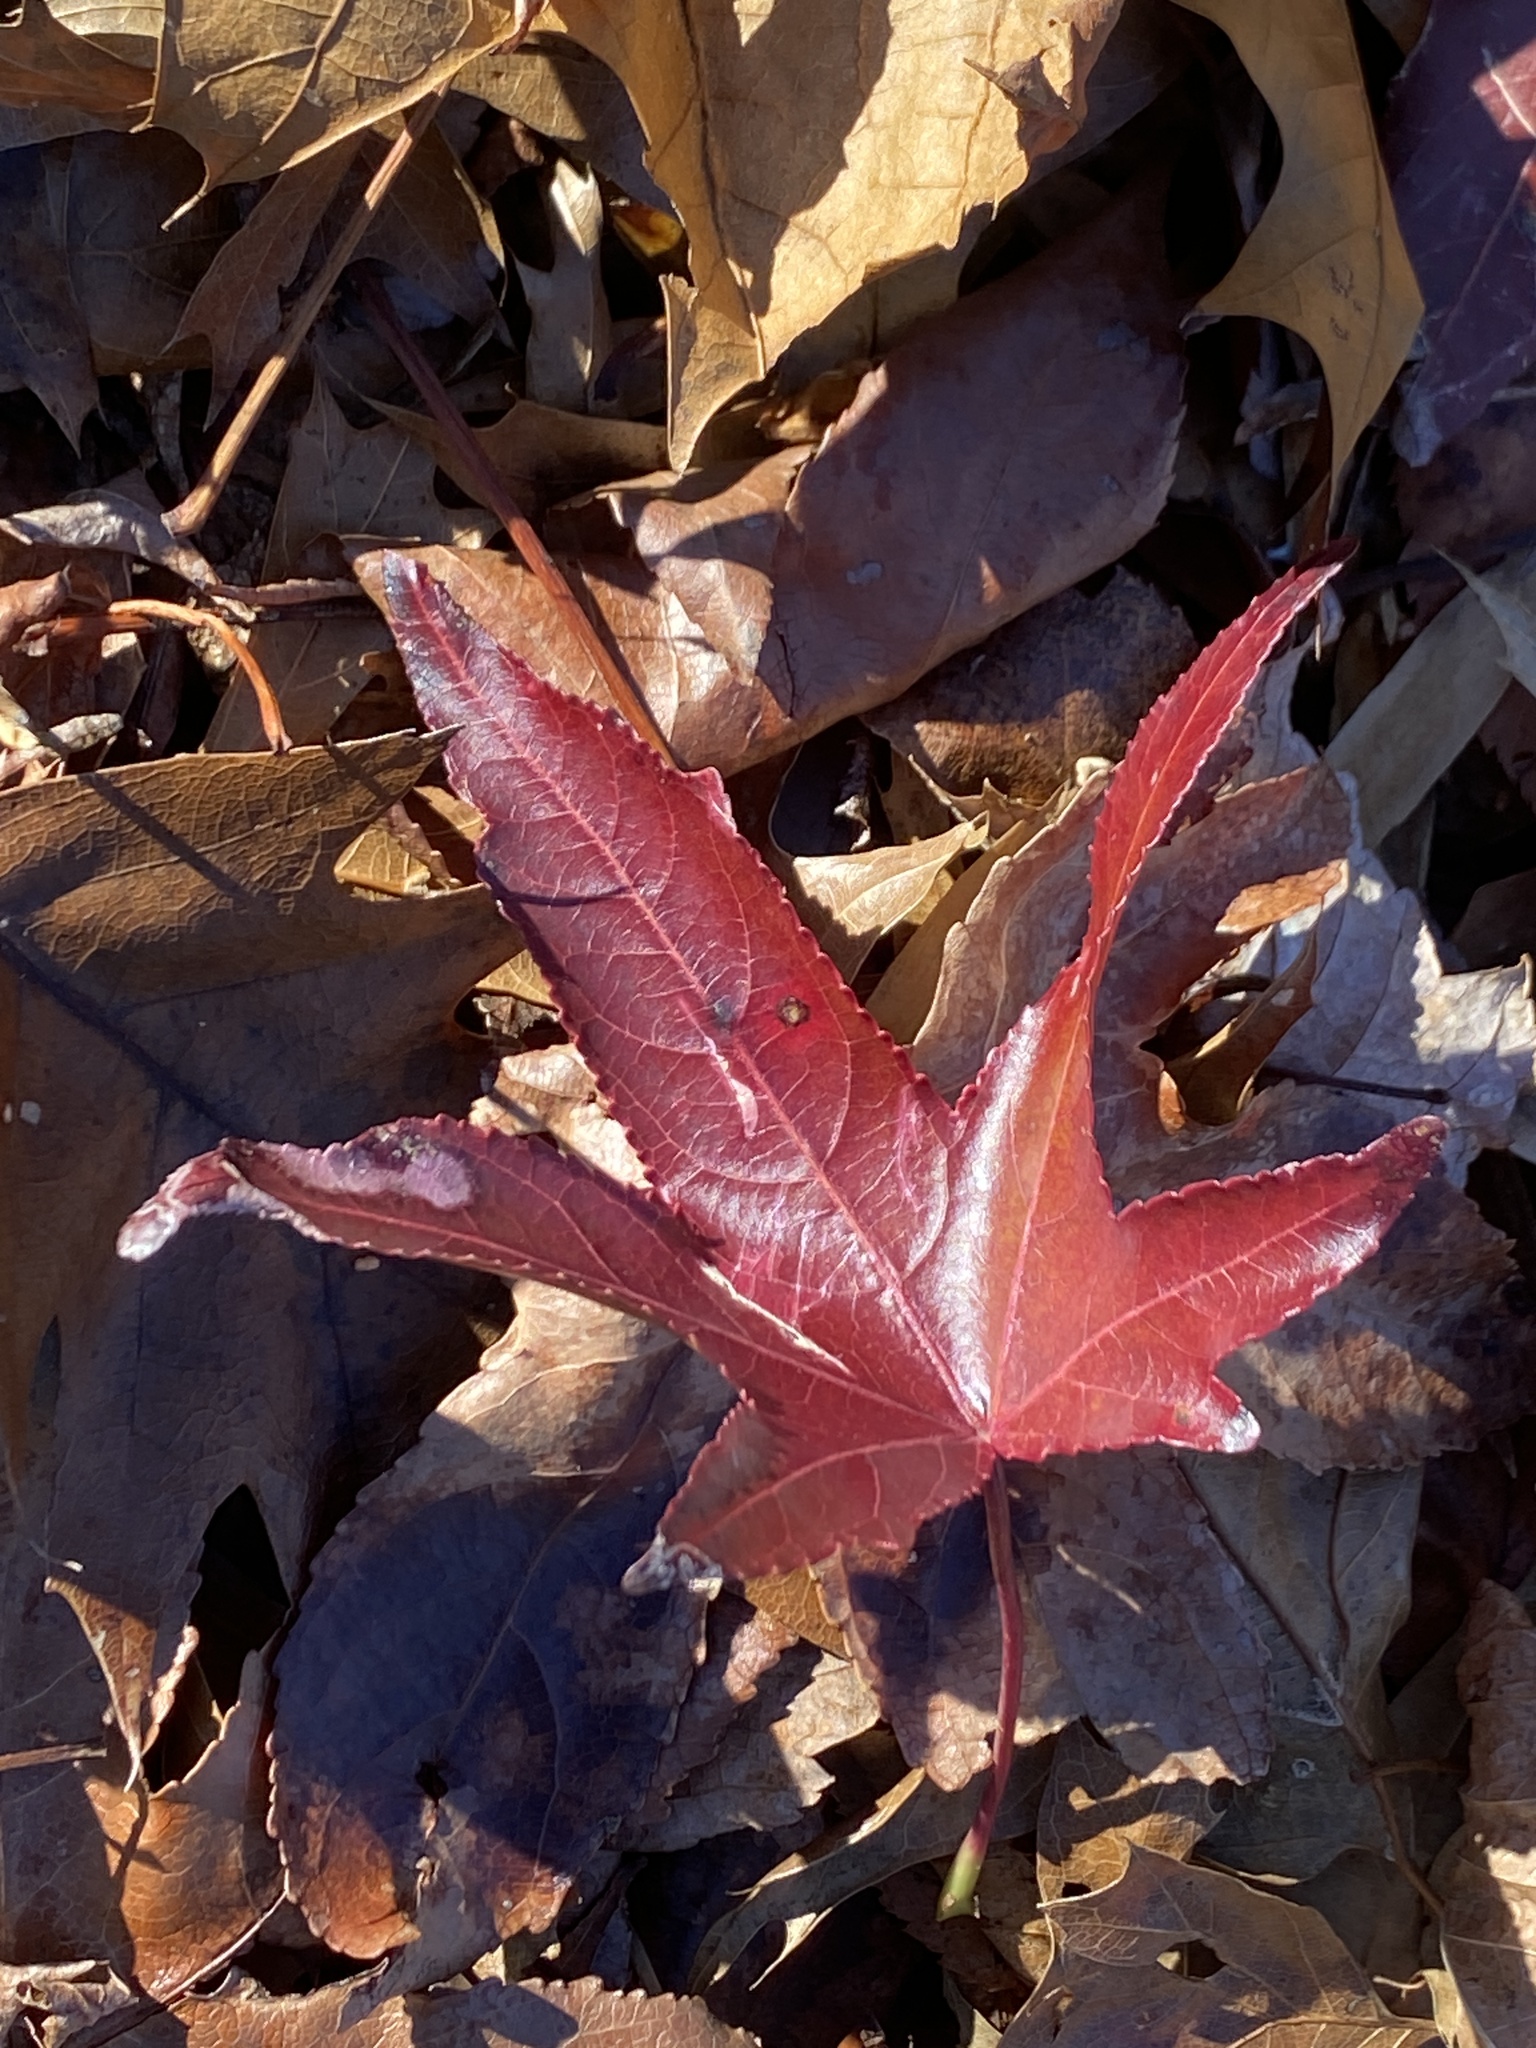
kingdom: Plantae
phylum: Tracheophyta
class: Magnoliopsida
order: Saxifragales
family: Altingiaceae
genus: Liquidambar
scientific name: Liquidambar styraciflua
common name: Sweet gum
